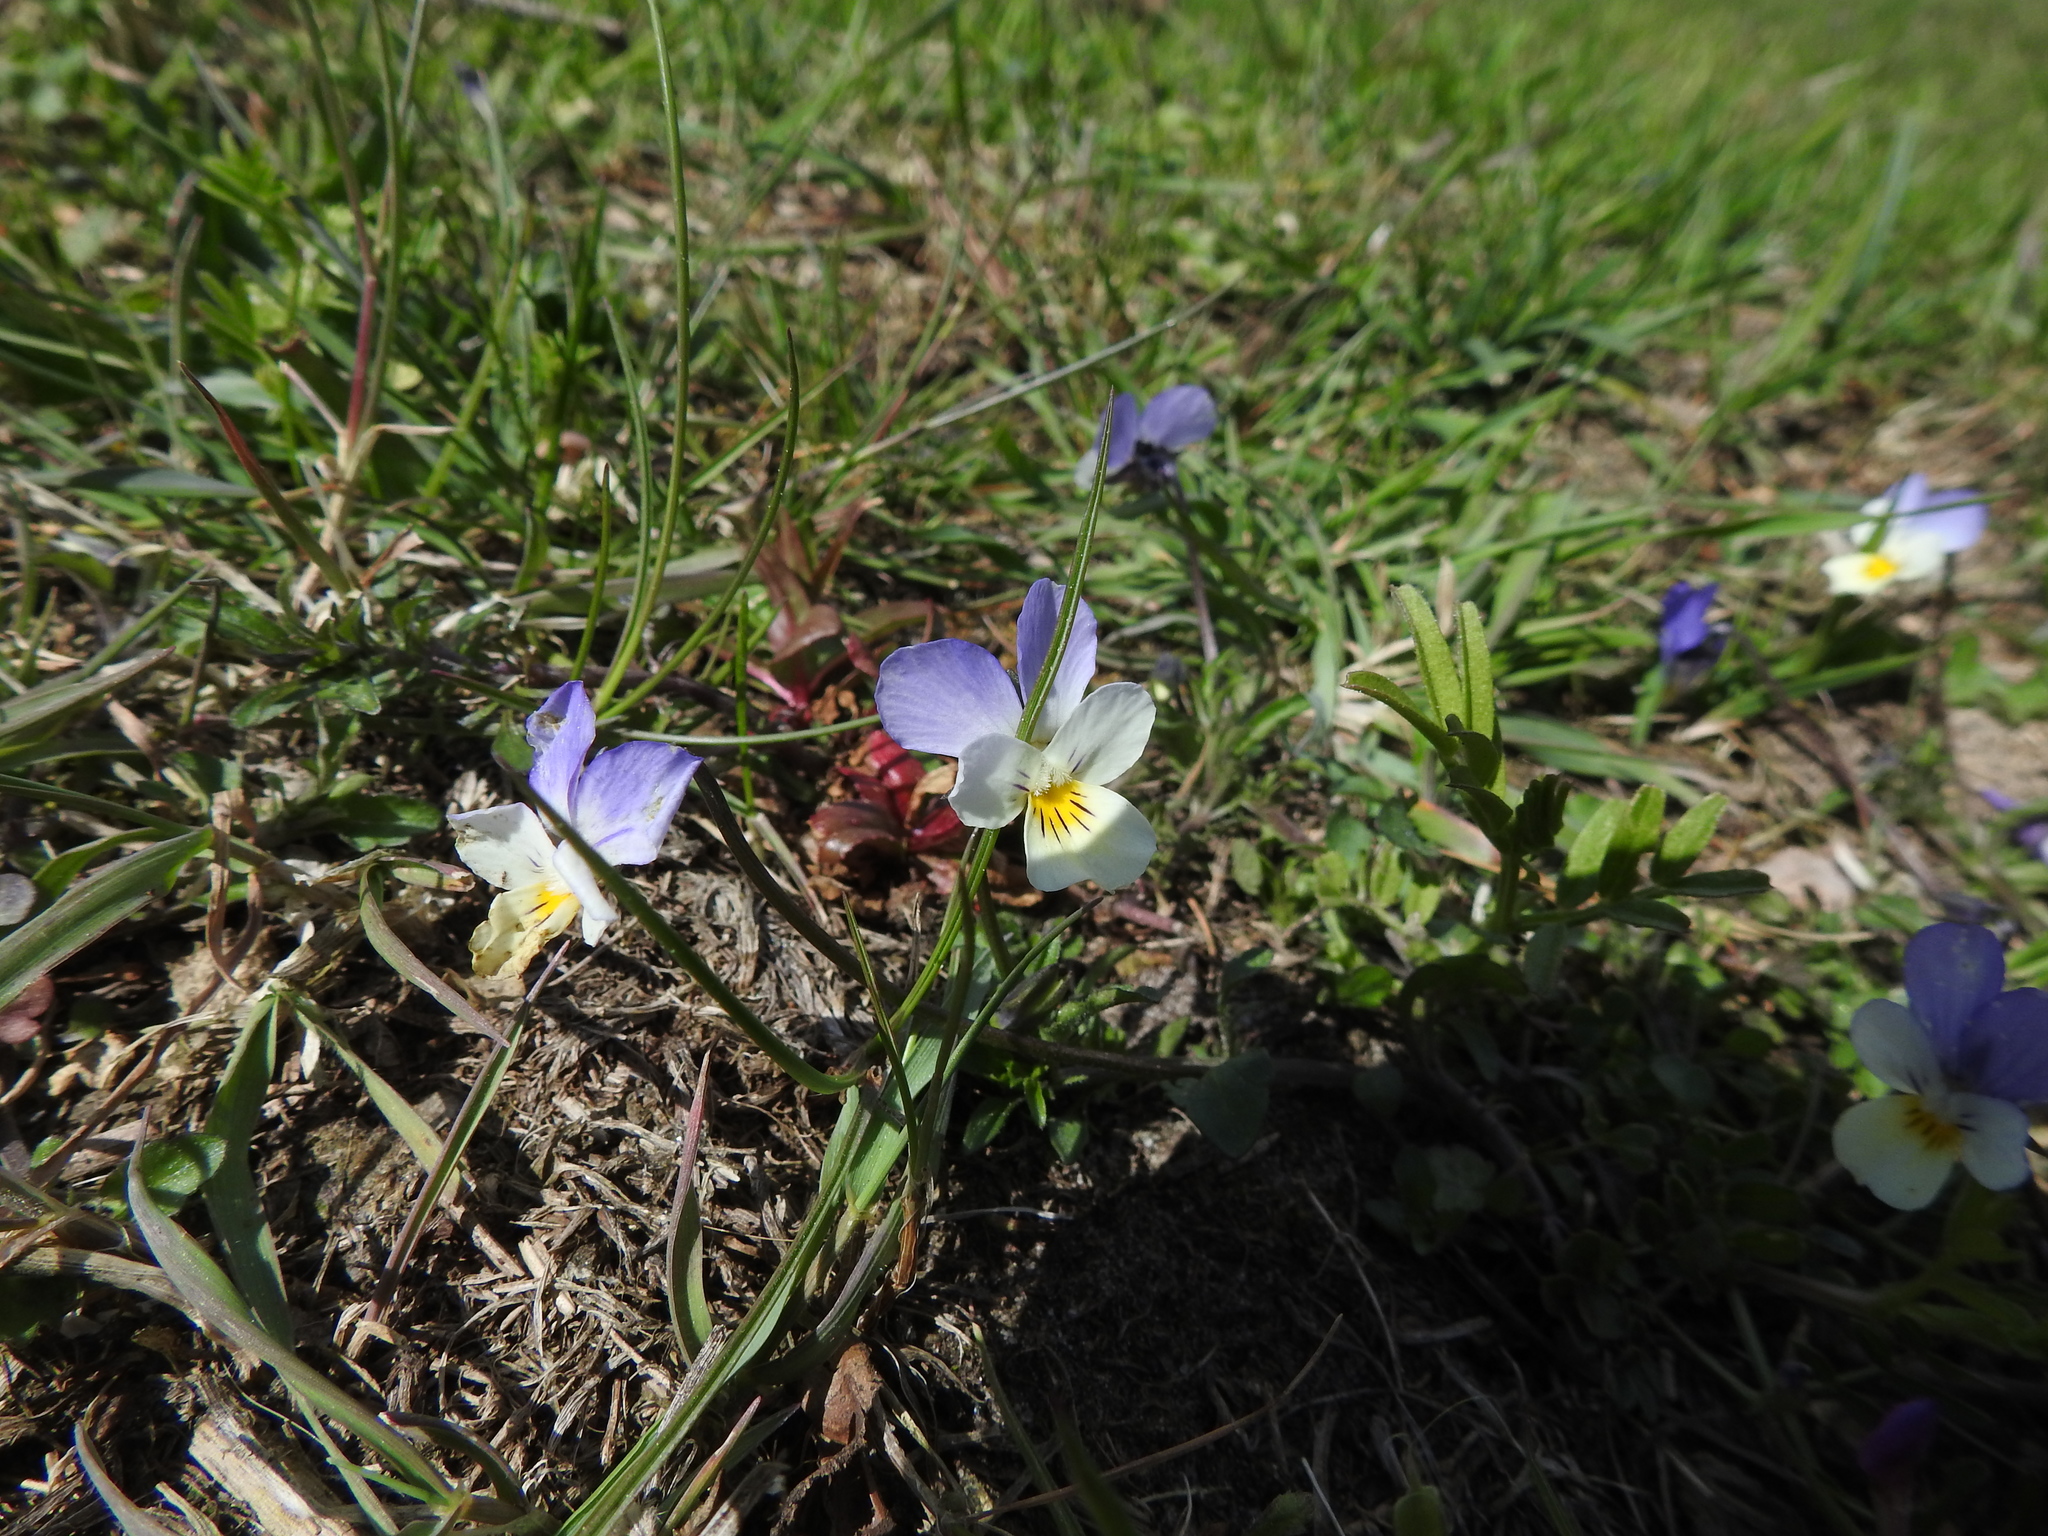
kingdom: Plantae
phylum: Tracheophyta
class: Magnoliopsida
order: Malpighiales
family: Violaceae
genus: Viola
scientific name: Viola tricolor
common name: Pansy
